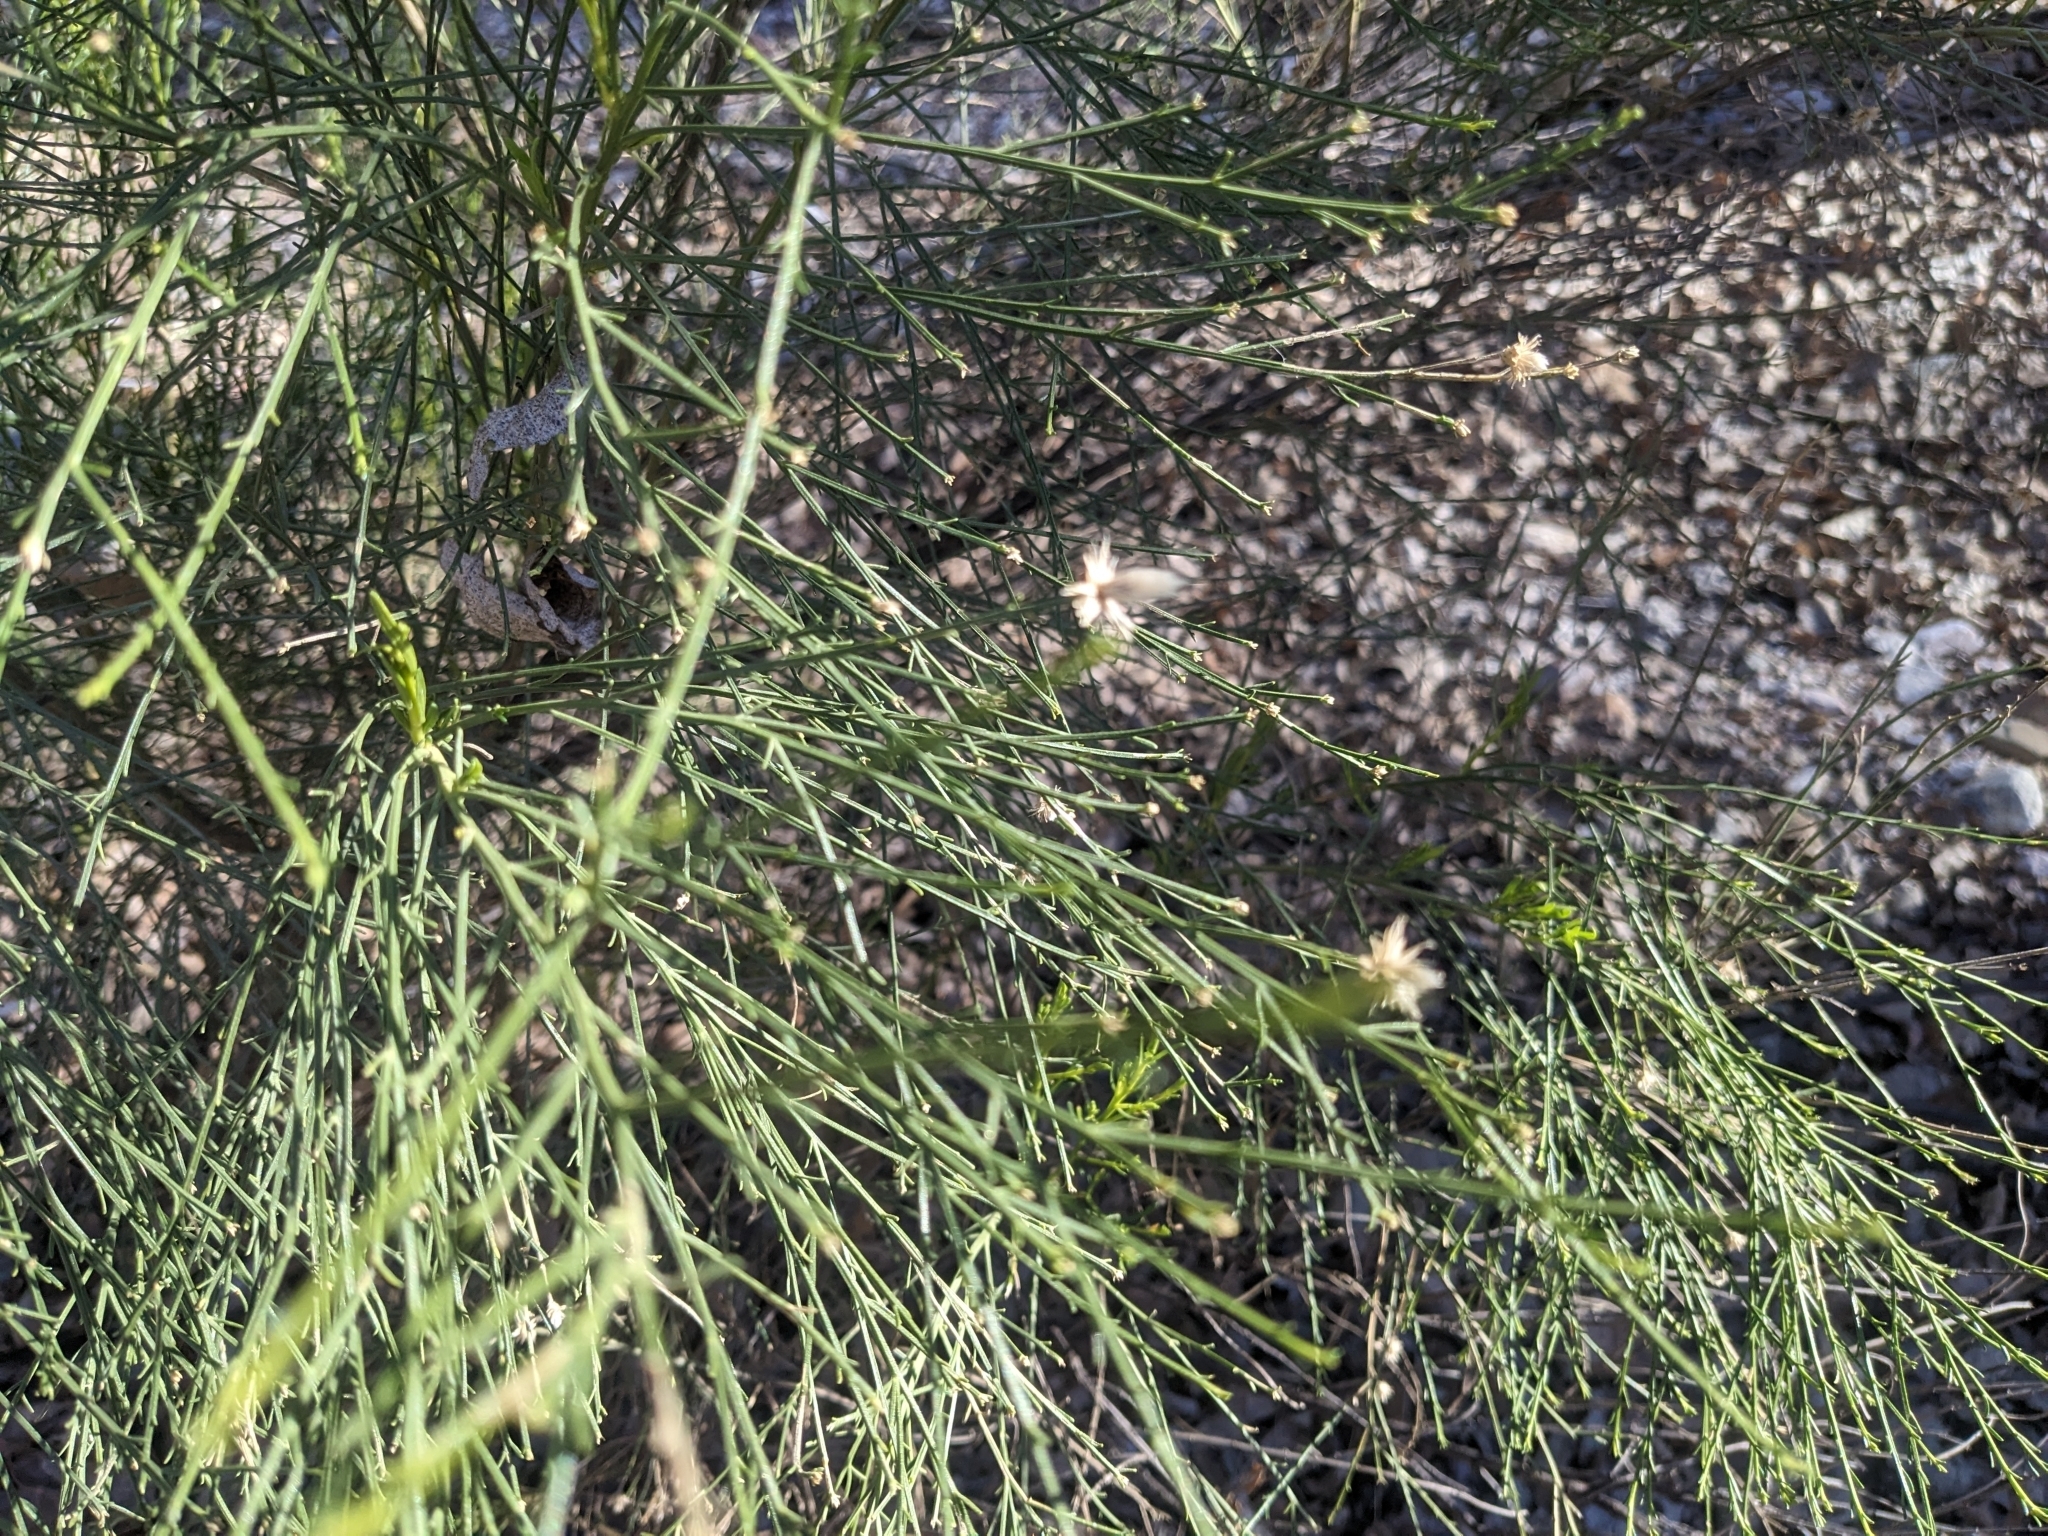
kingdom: Plantae
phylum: Tracheophyta
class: Magnoliopsida
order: Asterales
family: Asteraceae
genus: Baccharis
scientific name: Baccharis sarothroides
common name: Desert-broom
